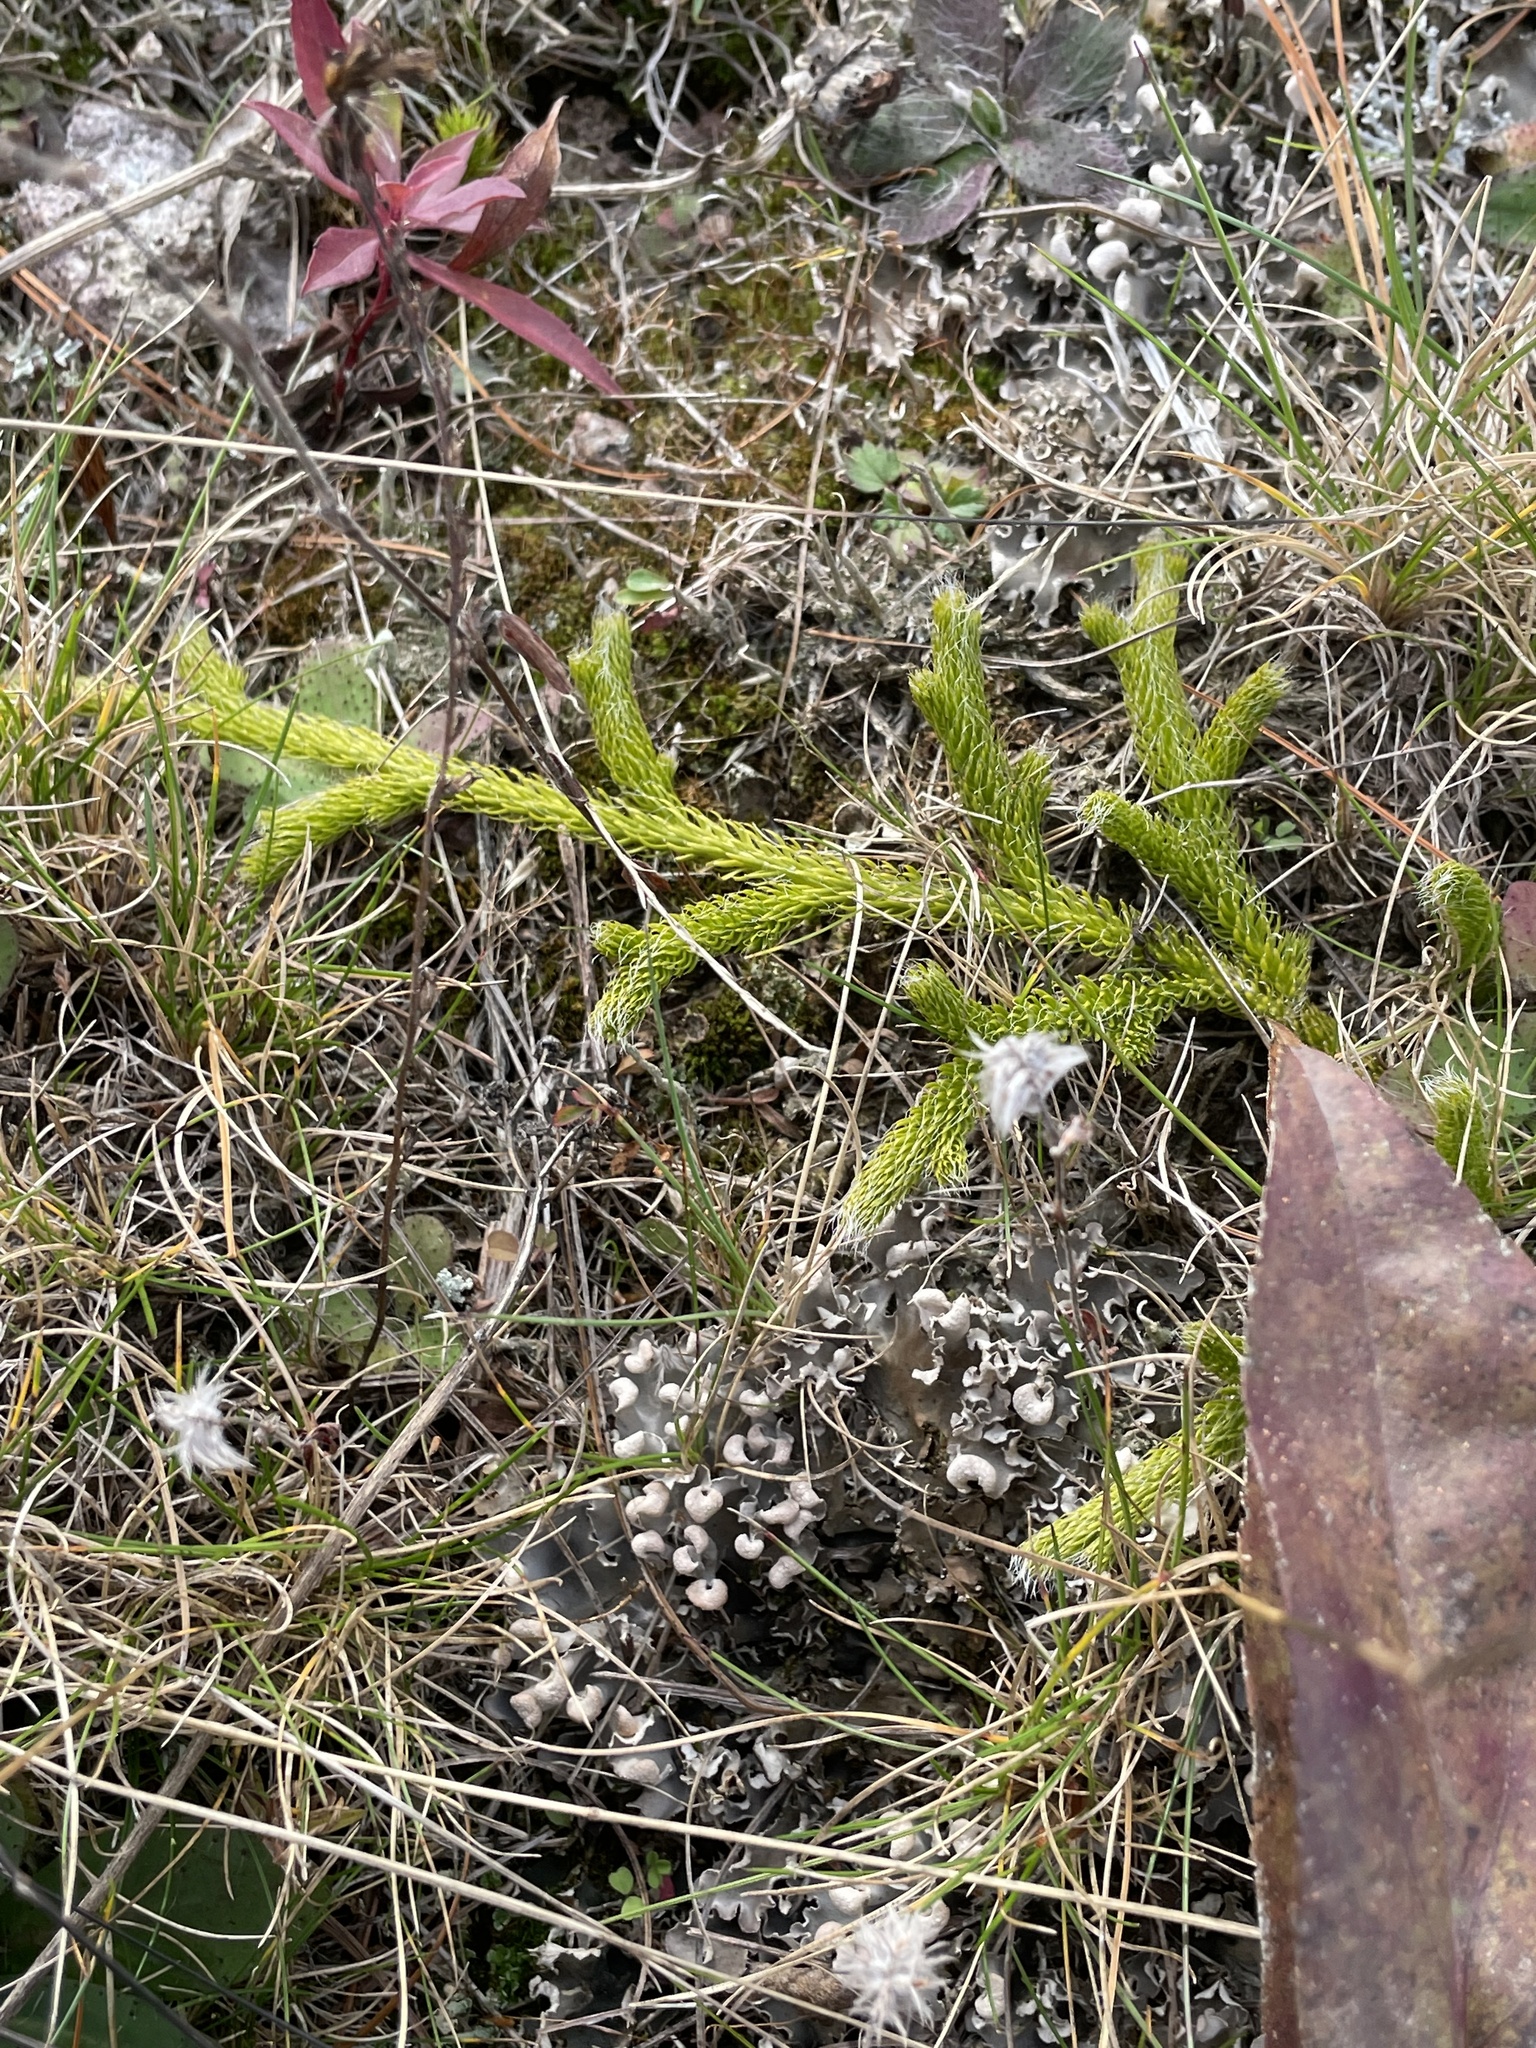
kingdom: Plantae
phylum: Tracheophyta
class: Lycopodiopsida
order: Lycopodiales
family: Lycopodiaceae
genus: Lycopodium
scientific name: Lycopodium lagopus
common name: One-cone clubmoss
